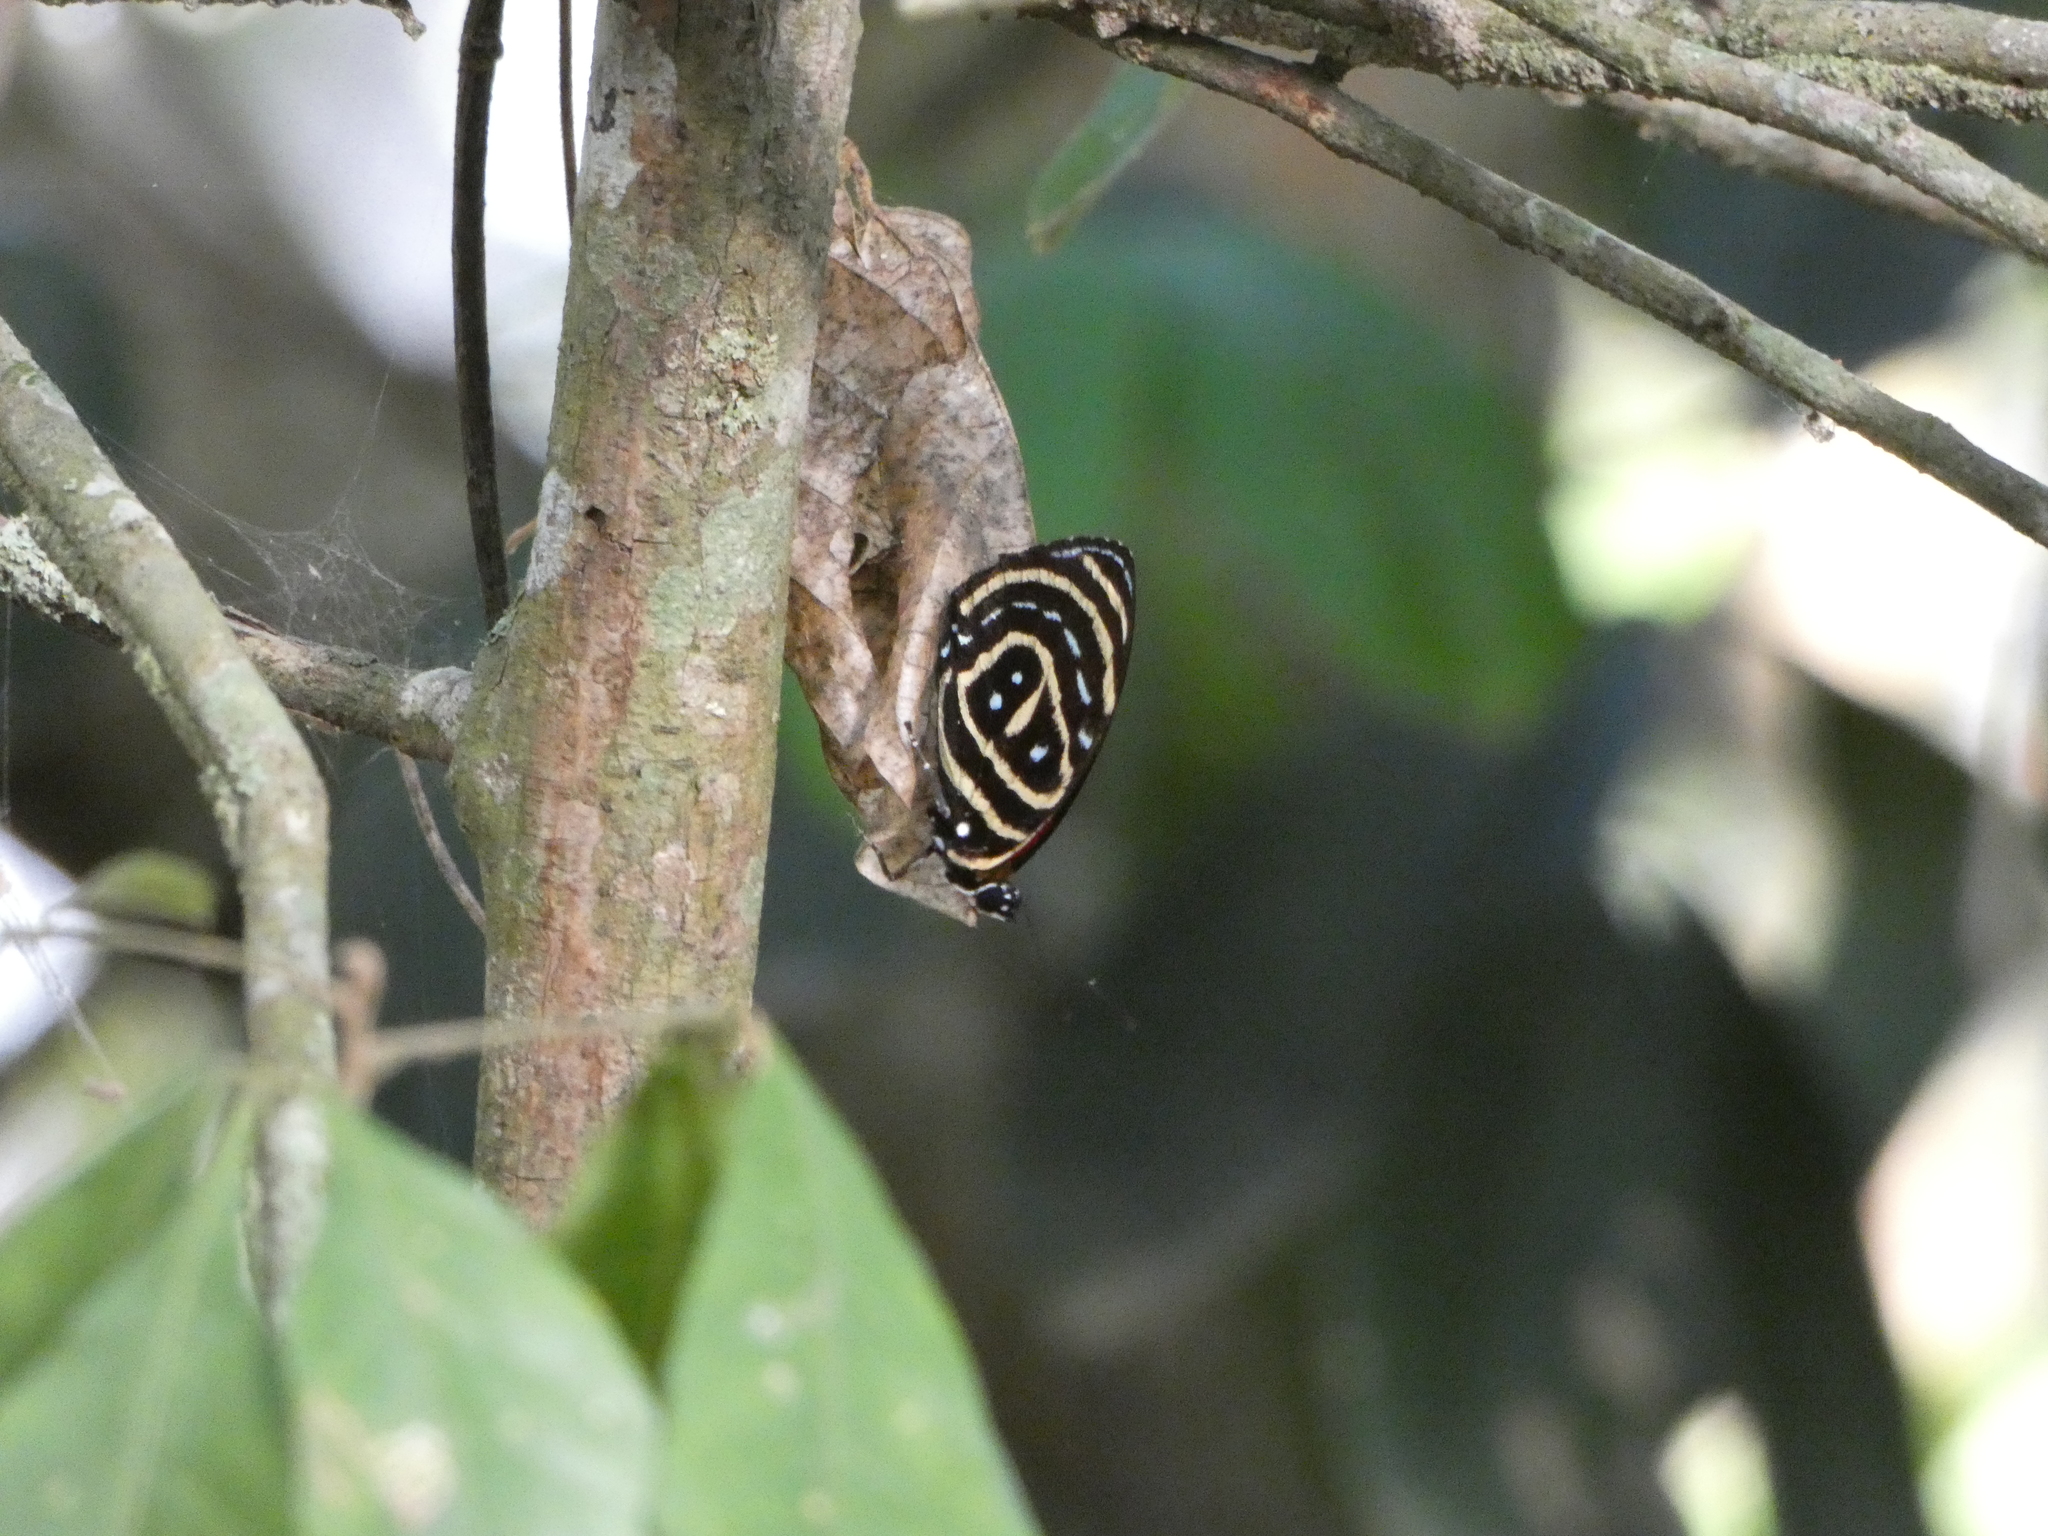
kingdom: Animalia
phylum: Arthropoda
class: Insecta
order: Lepidoptera
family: Nymphalidae
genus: Catagramma
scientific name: Catagramma astarte
